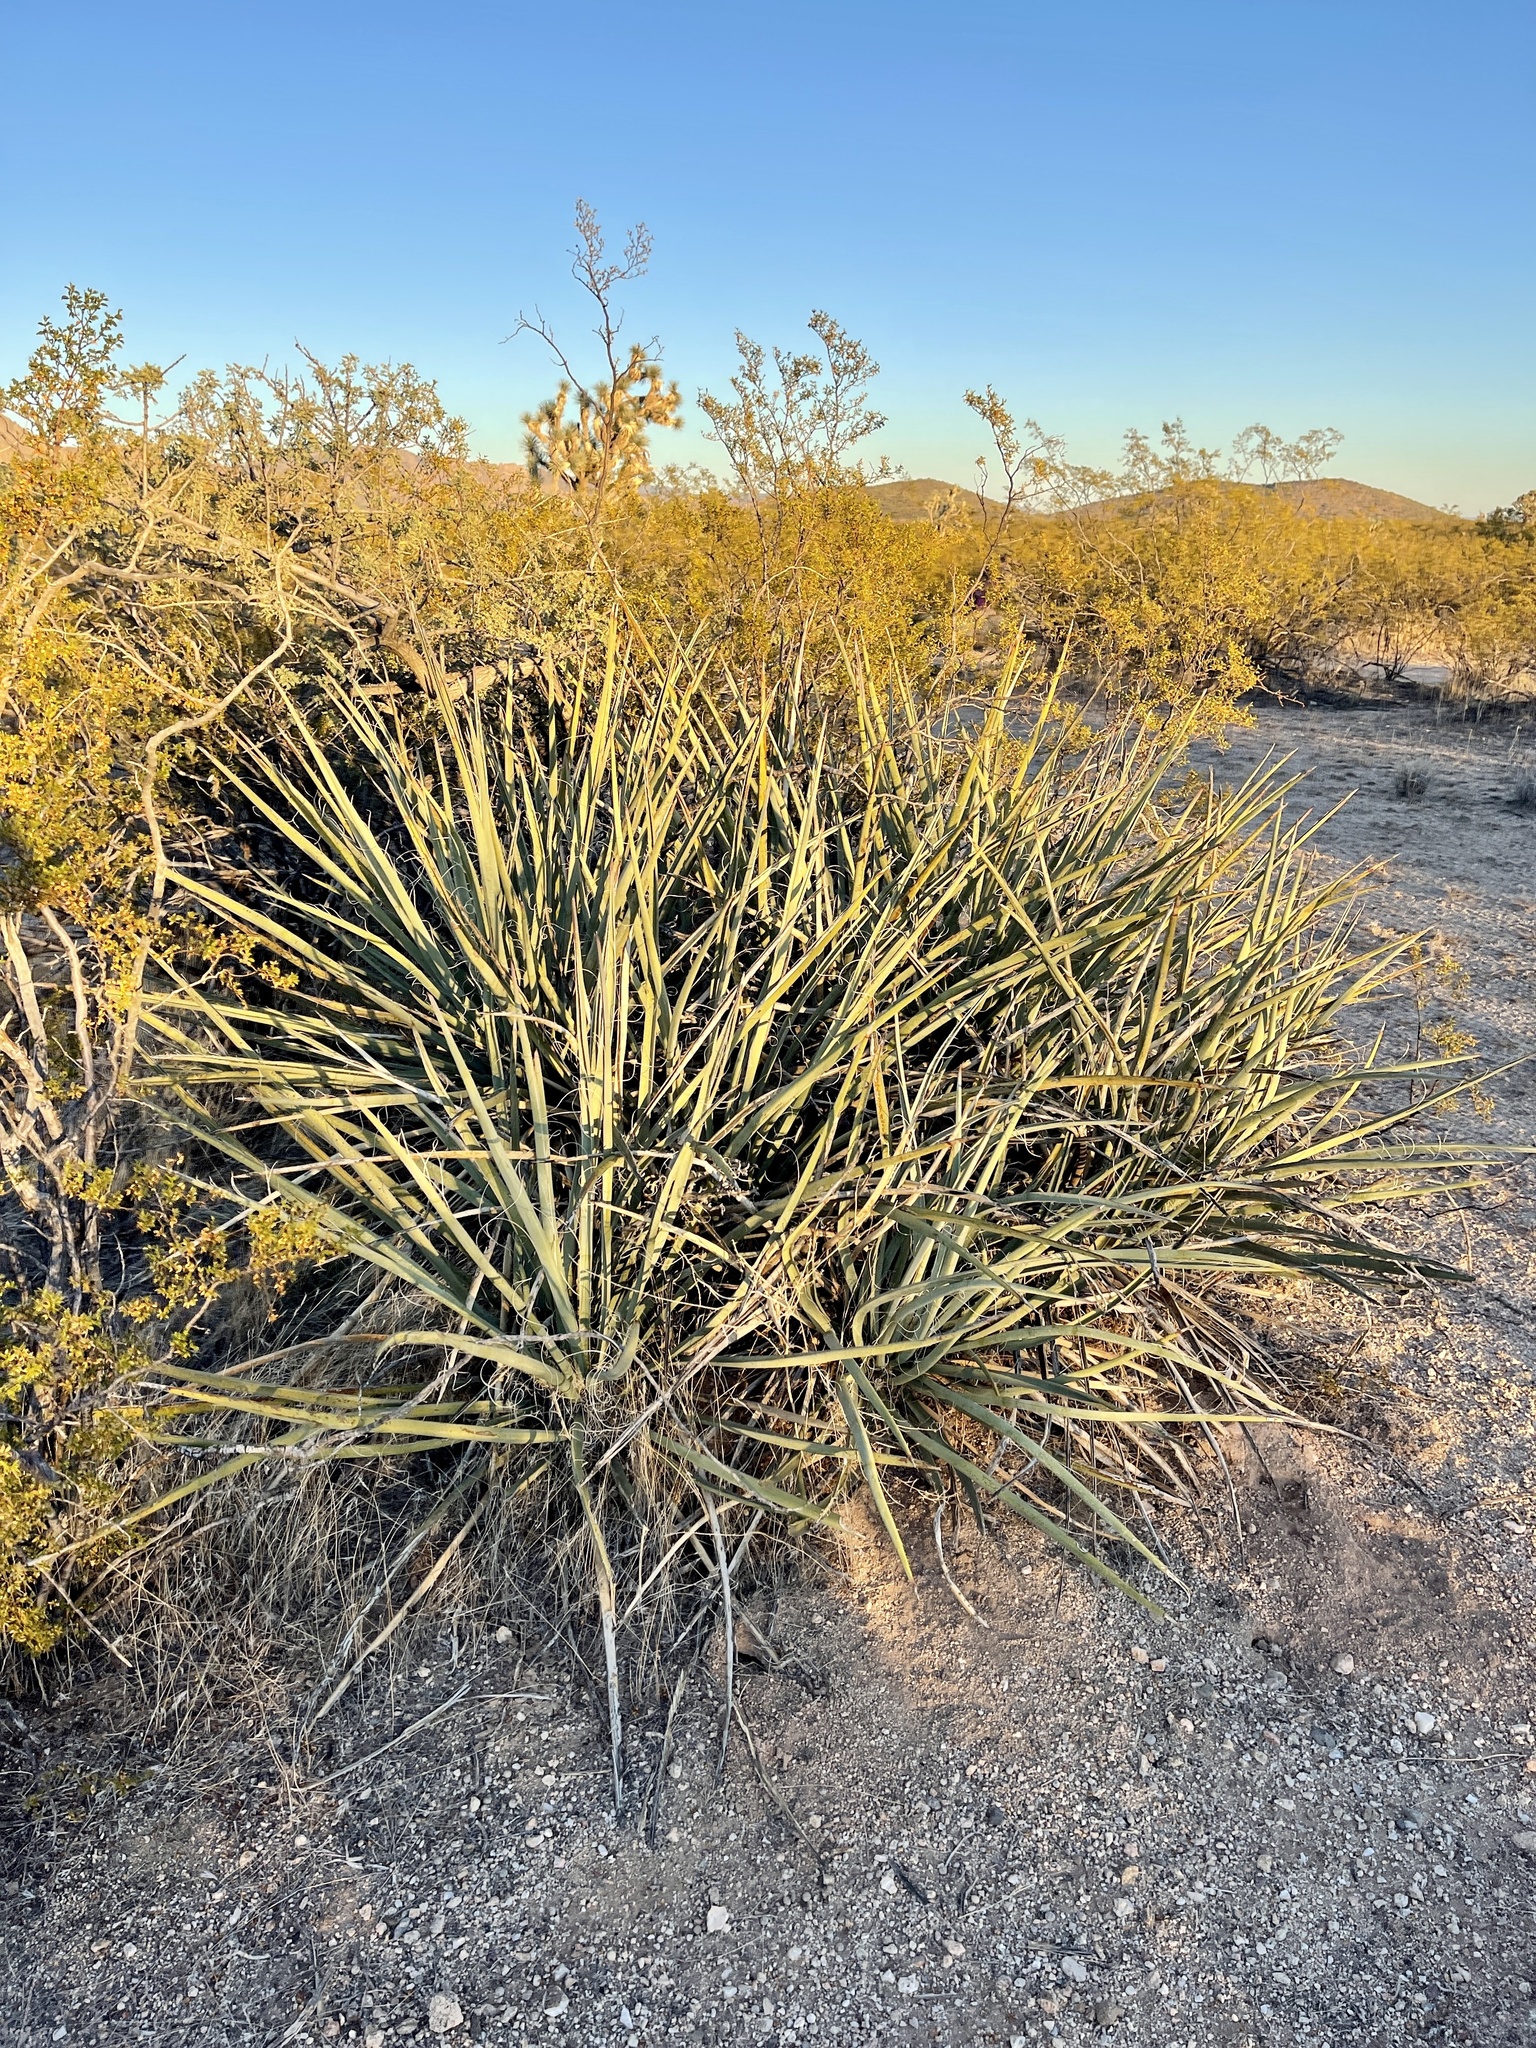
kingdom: Plantae
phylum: Tracheophyta
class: Liliopsida
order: Asparagales
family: Asparagaceae
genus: Yucca
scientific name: Yucca baccata
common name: Banana yucca
